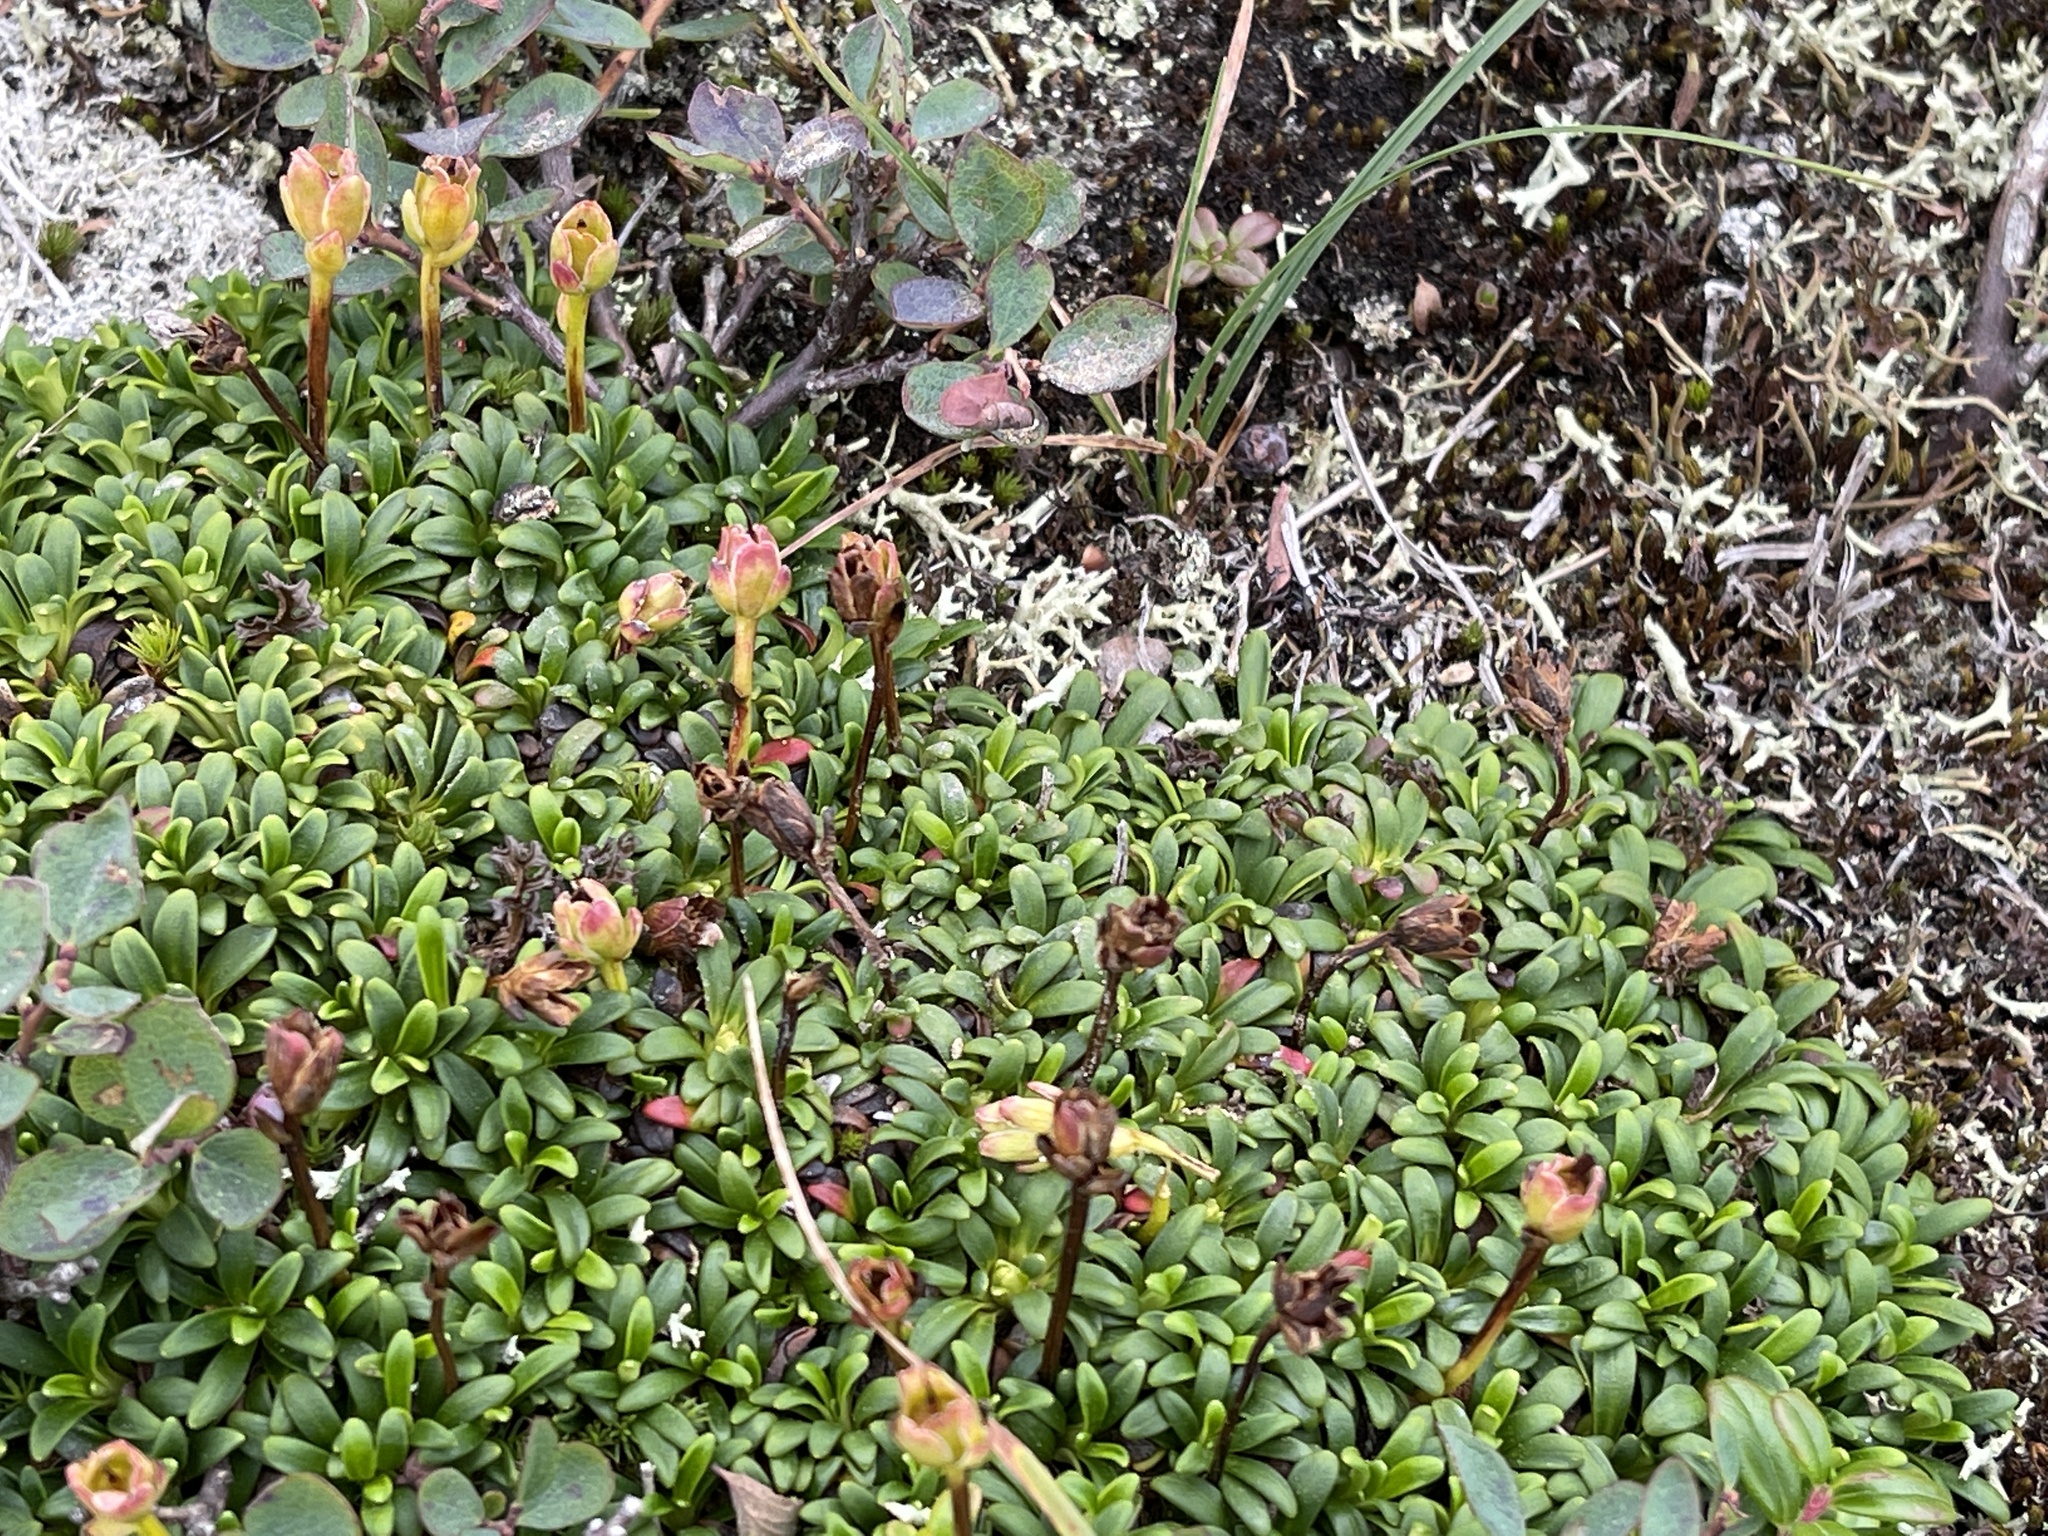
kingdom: Plantae
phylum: Tracheophyta
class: Magnoliopsida
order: Ericales
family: Diapensiaceae
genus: Diapensia
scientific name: Diapensia lapponica
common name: Diapensia
